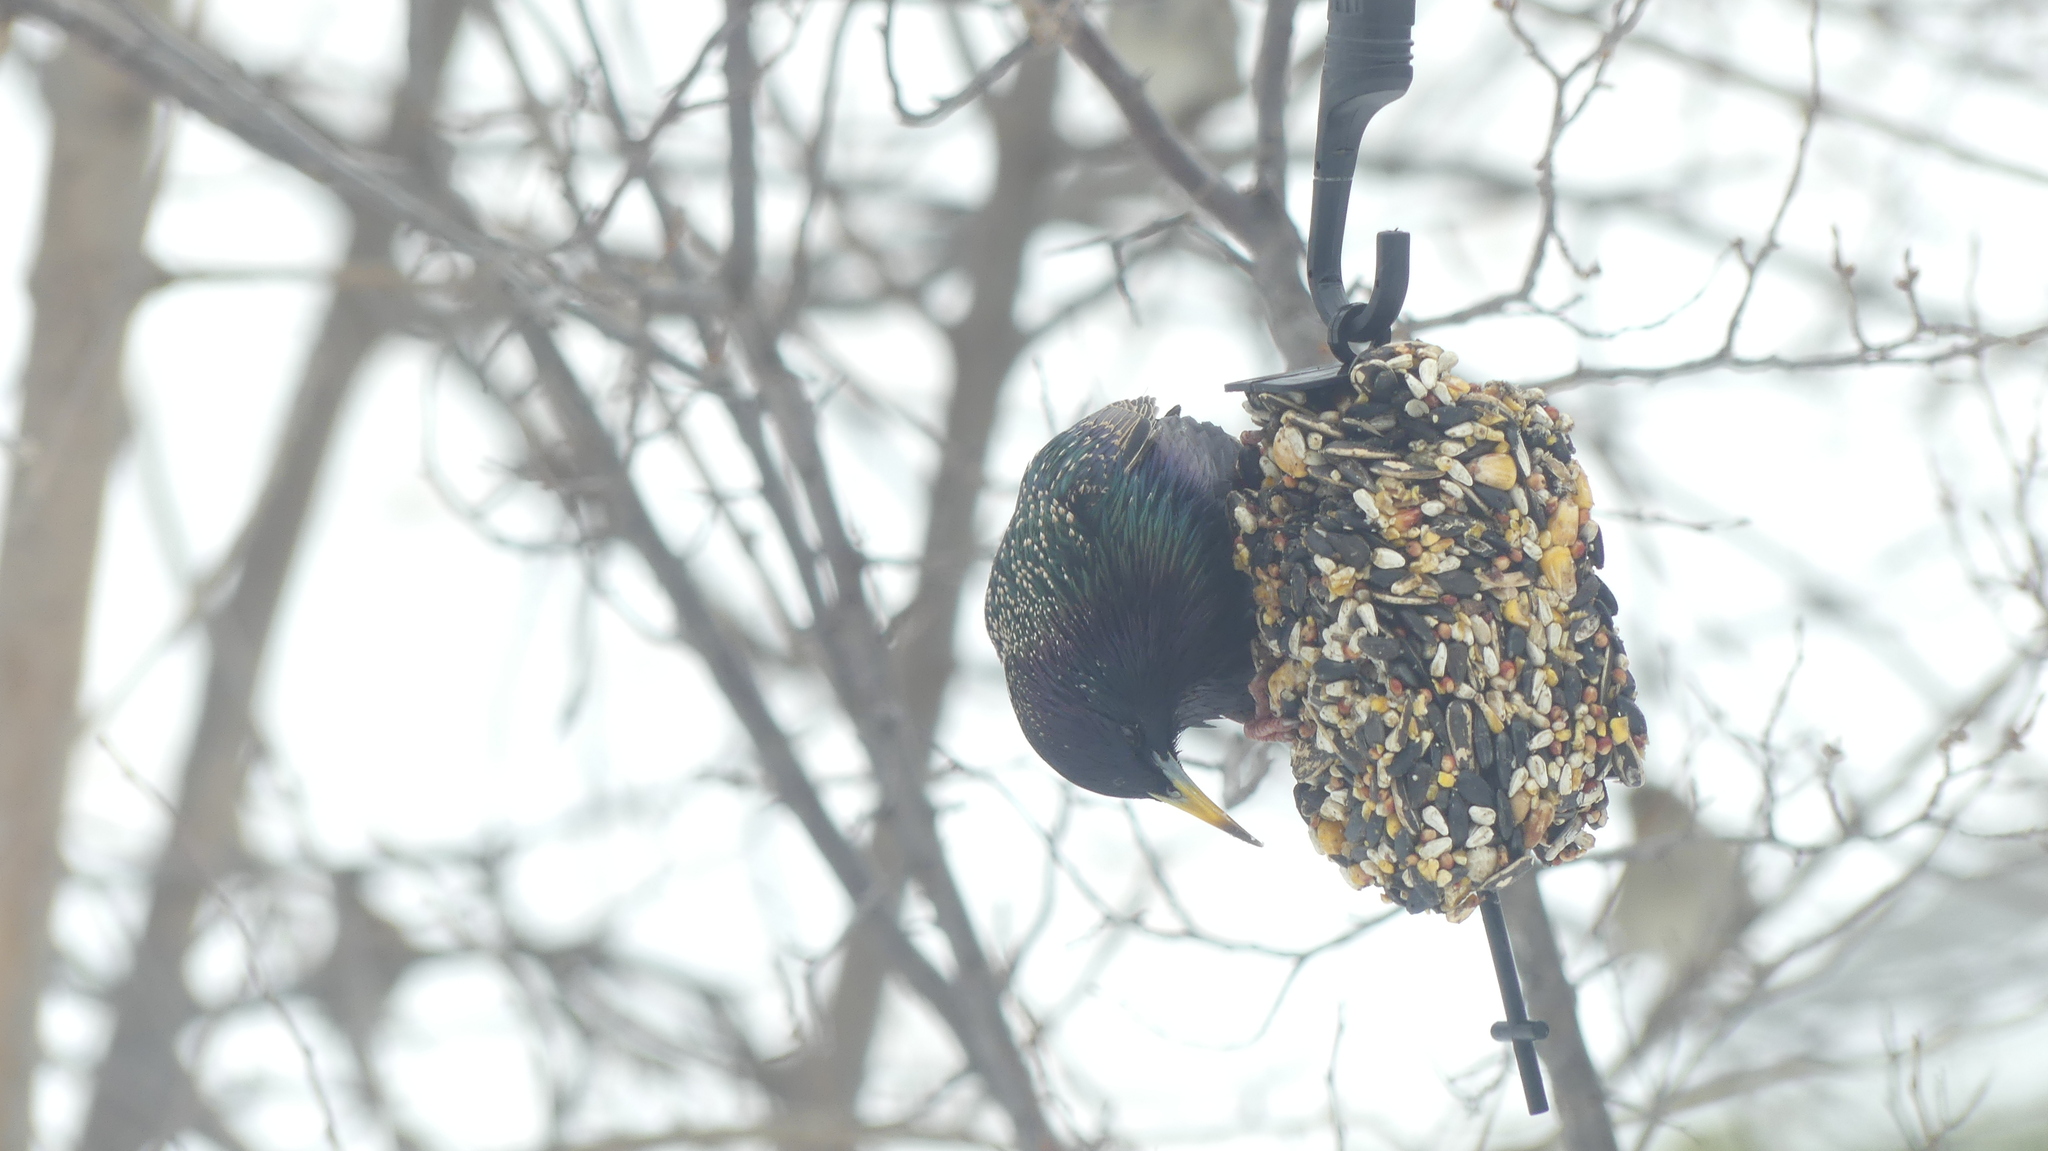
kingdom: Animalia
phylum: Chordata
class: Aves
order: Passeriformes
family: Sturnidae
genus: Sturnus
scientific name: Sturnus vulgaris
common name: Common starling
